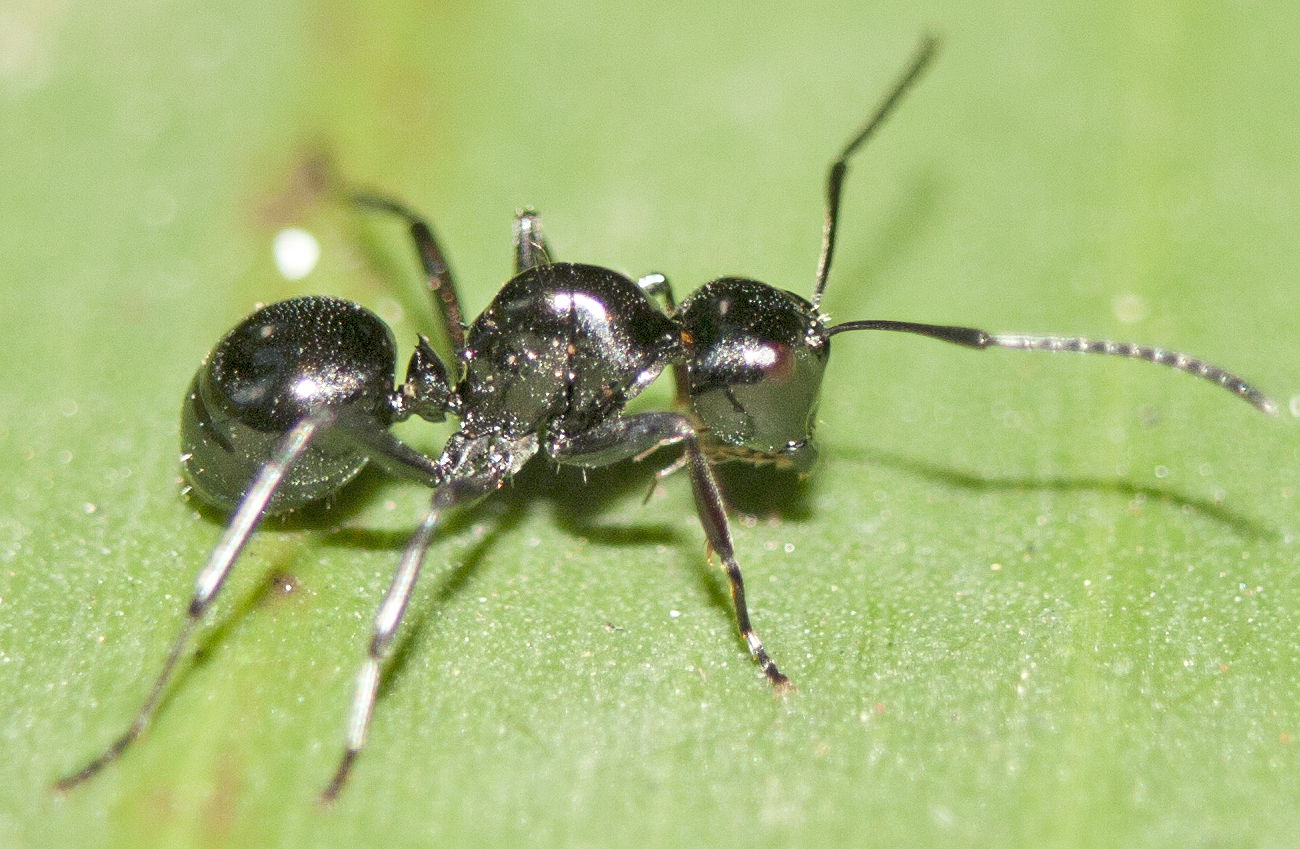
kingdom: Animalia
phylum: Arthropoda
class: Insecta
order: Hymenoptera
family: Formicidae
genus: Polyrhachis
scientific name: Polyrhachis australis
